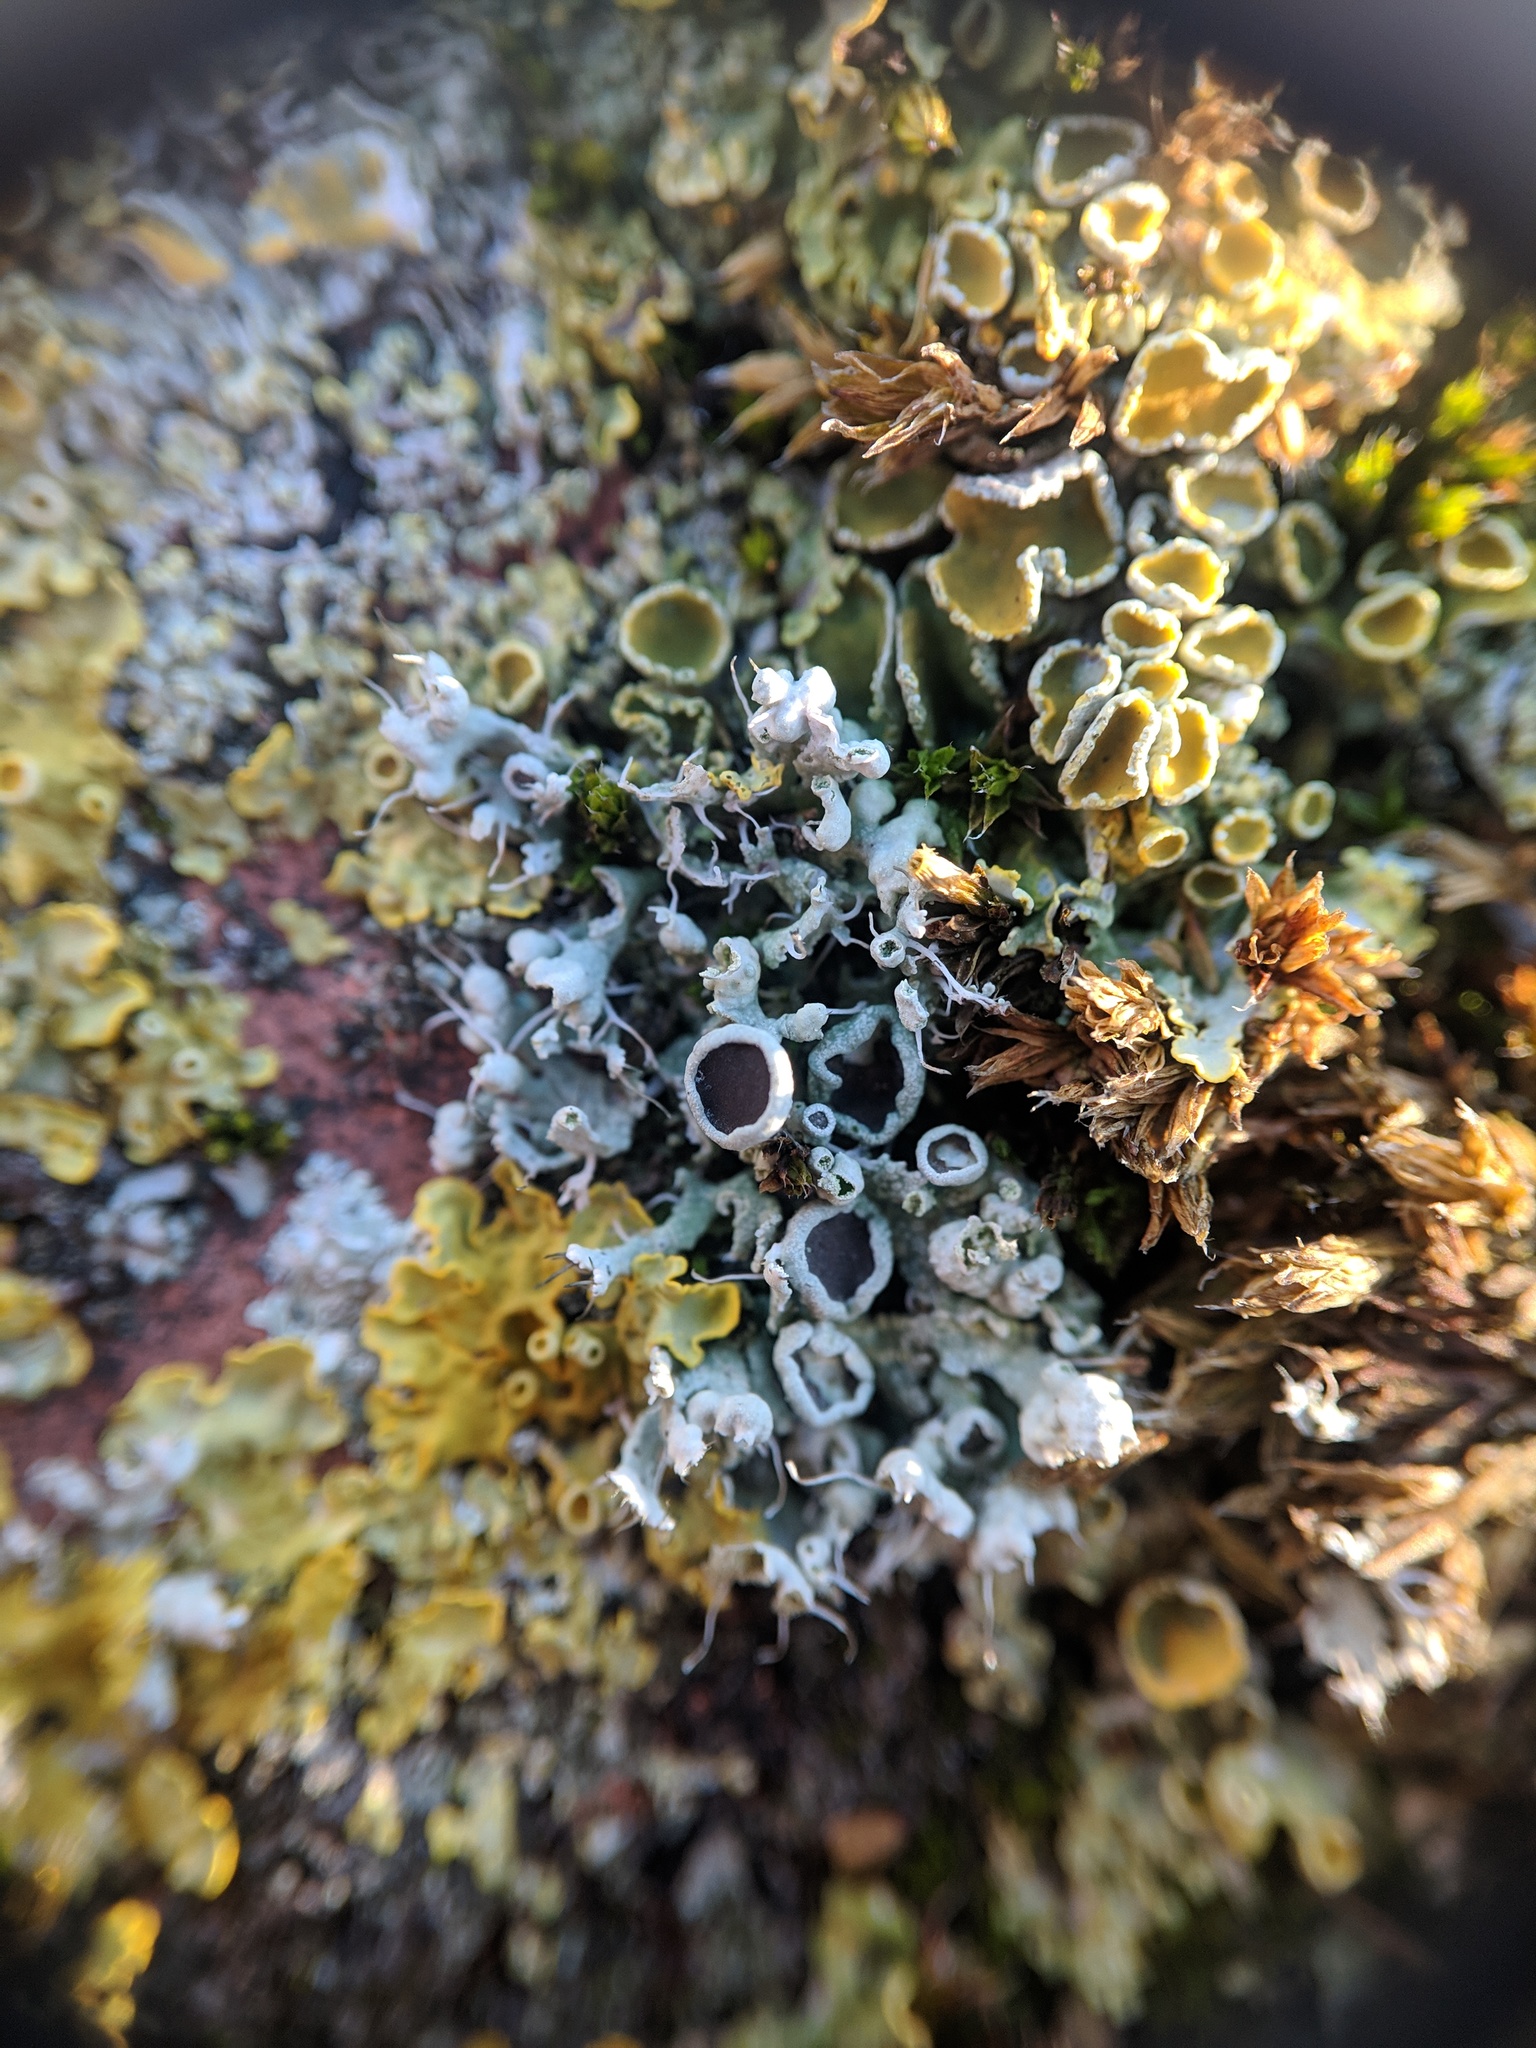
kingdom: Fungi
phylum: Ascomycota
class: Lecanoromycetes
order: Caliciales
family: Physciaceae
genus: Physcia
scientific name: Physcia adscendens
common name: Hooded rosette lichen
